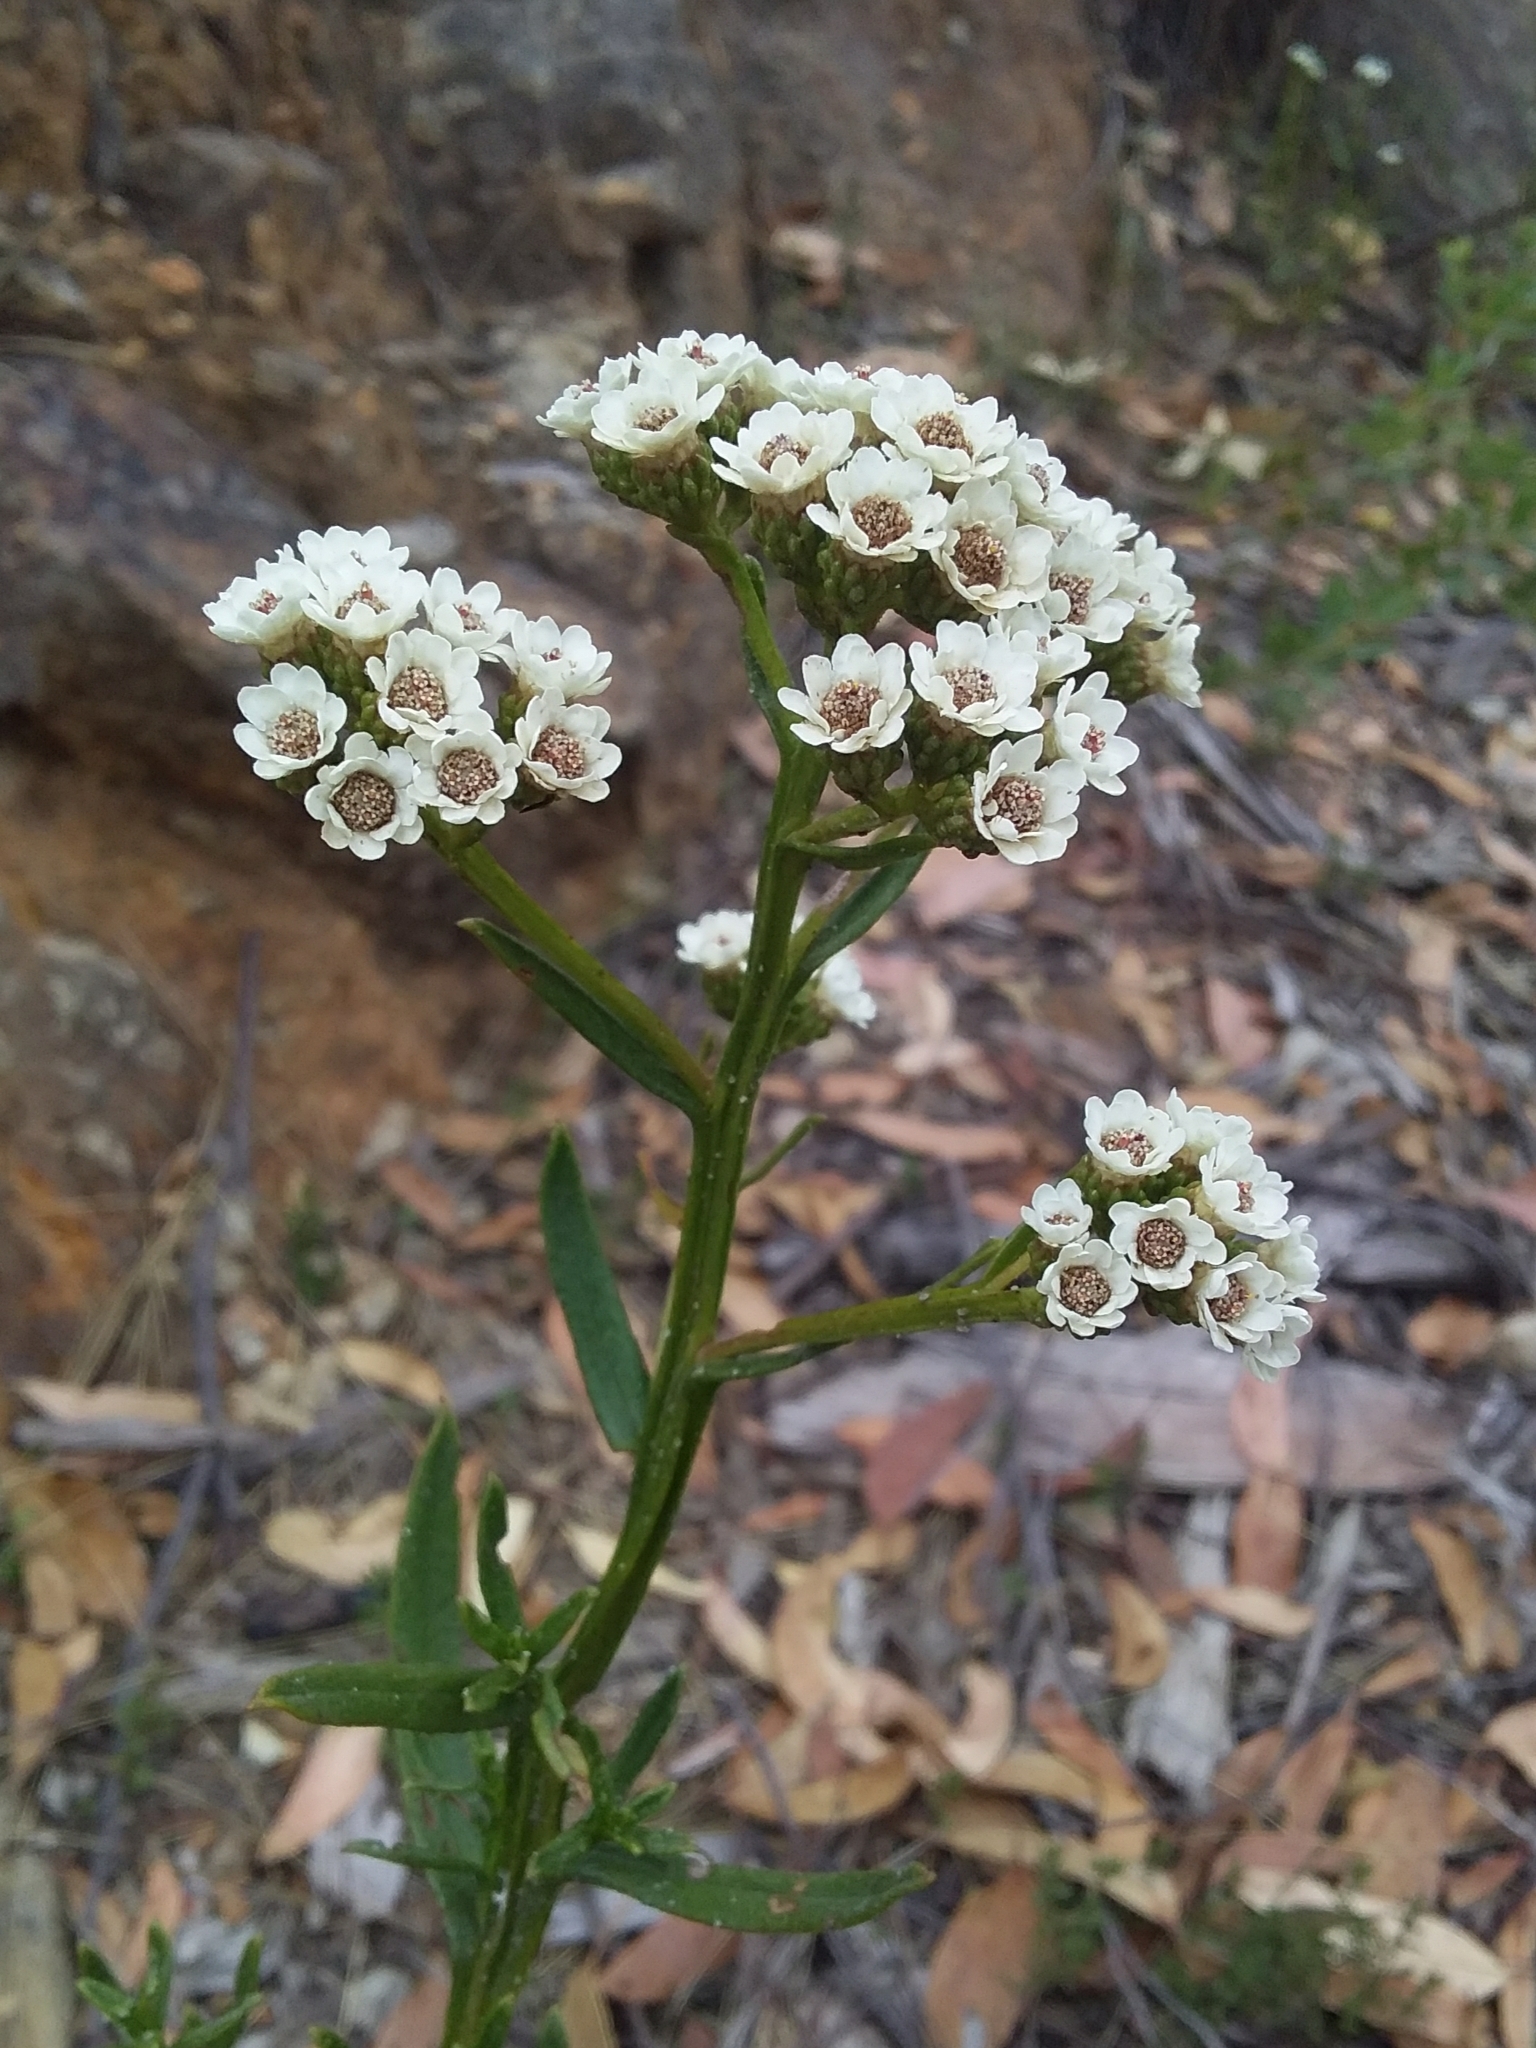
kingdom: Plantae
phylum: Tracheophyta
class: Magnoliopsida
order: Asterales
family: Asteraceae
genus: Ixodia
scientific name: Ixodia achillaeoides
